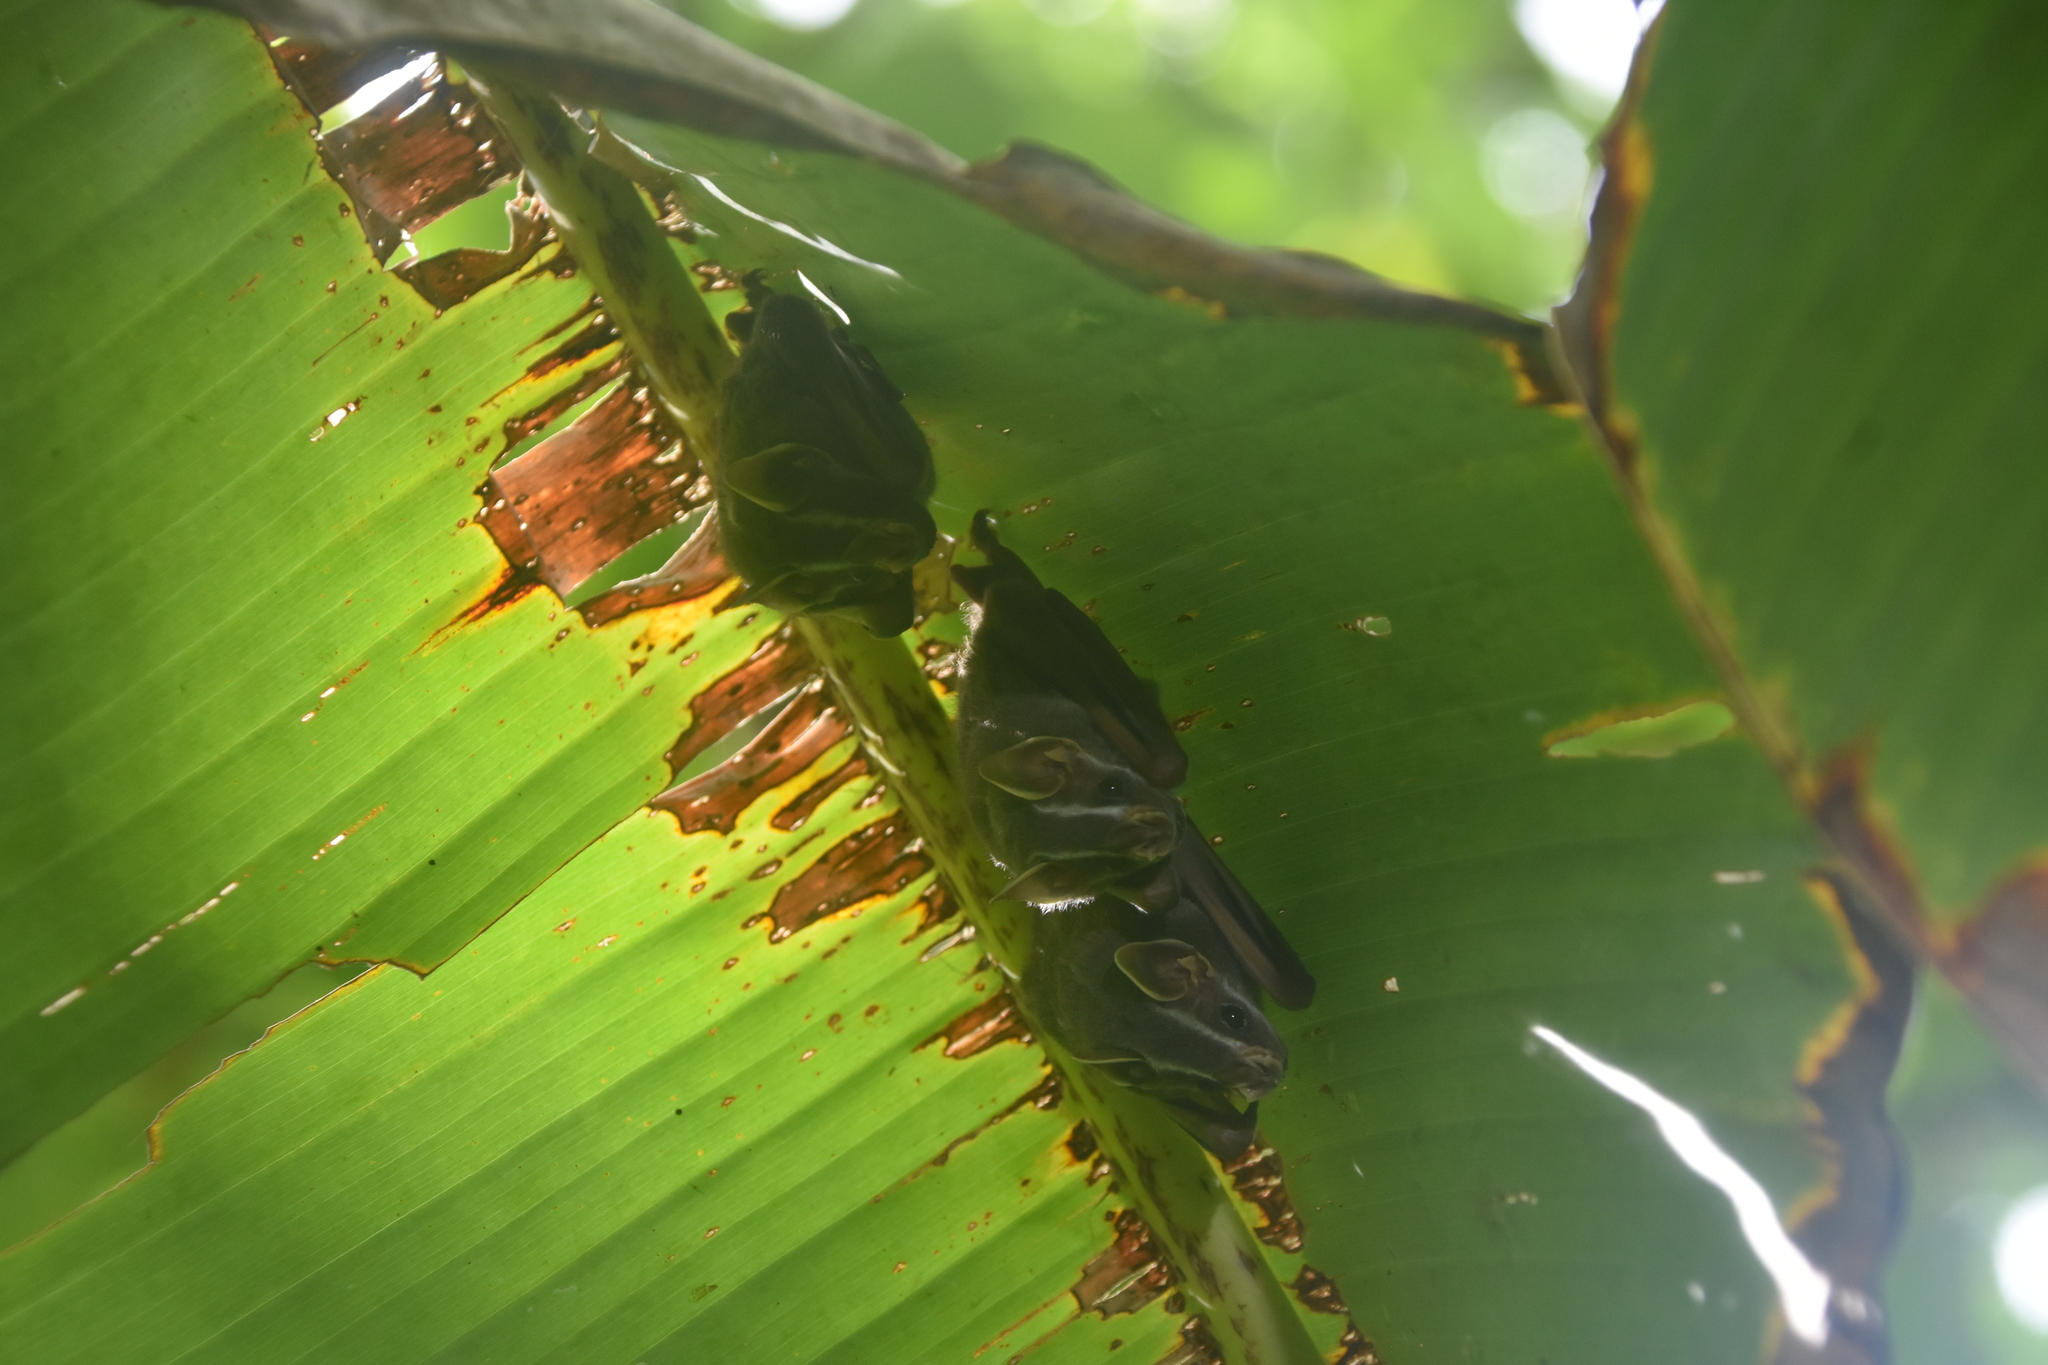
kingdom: Animalia
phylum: Chordata
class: Mammalia
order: Chiroptera
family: Phyllostomidae
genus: Uroderma
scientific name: Uroderma bilobatum
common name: Common tent-making bat
